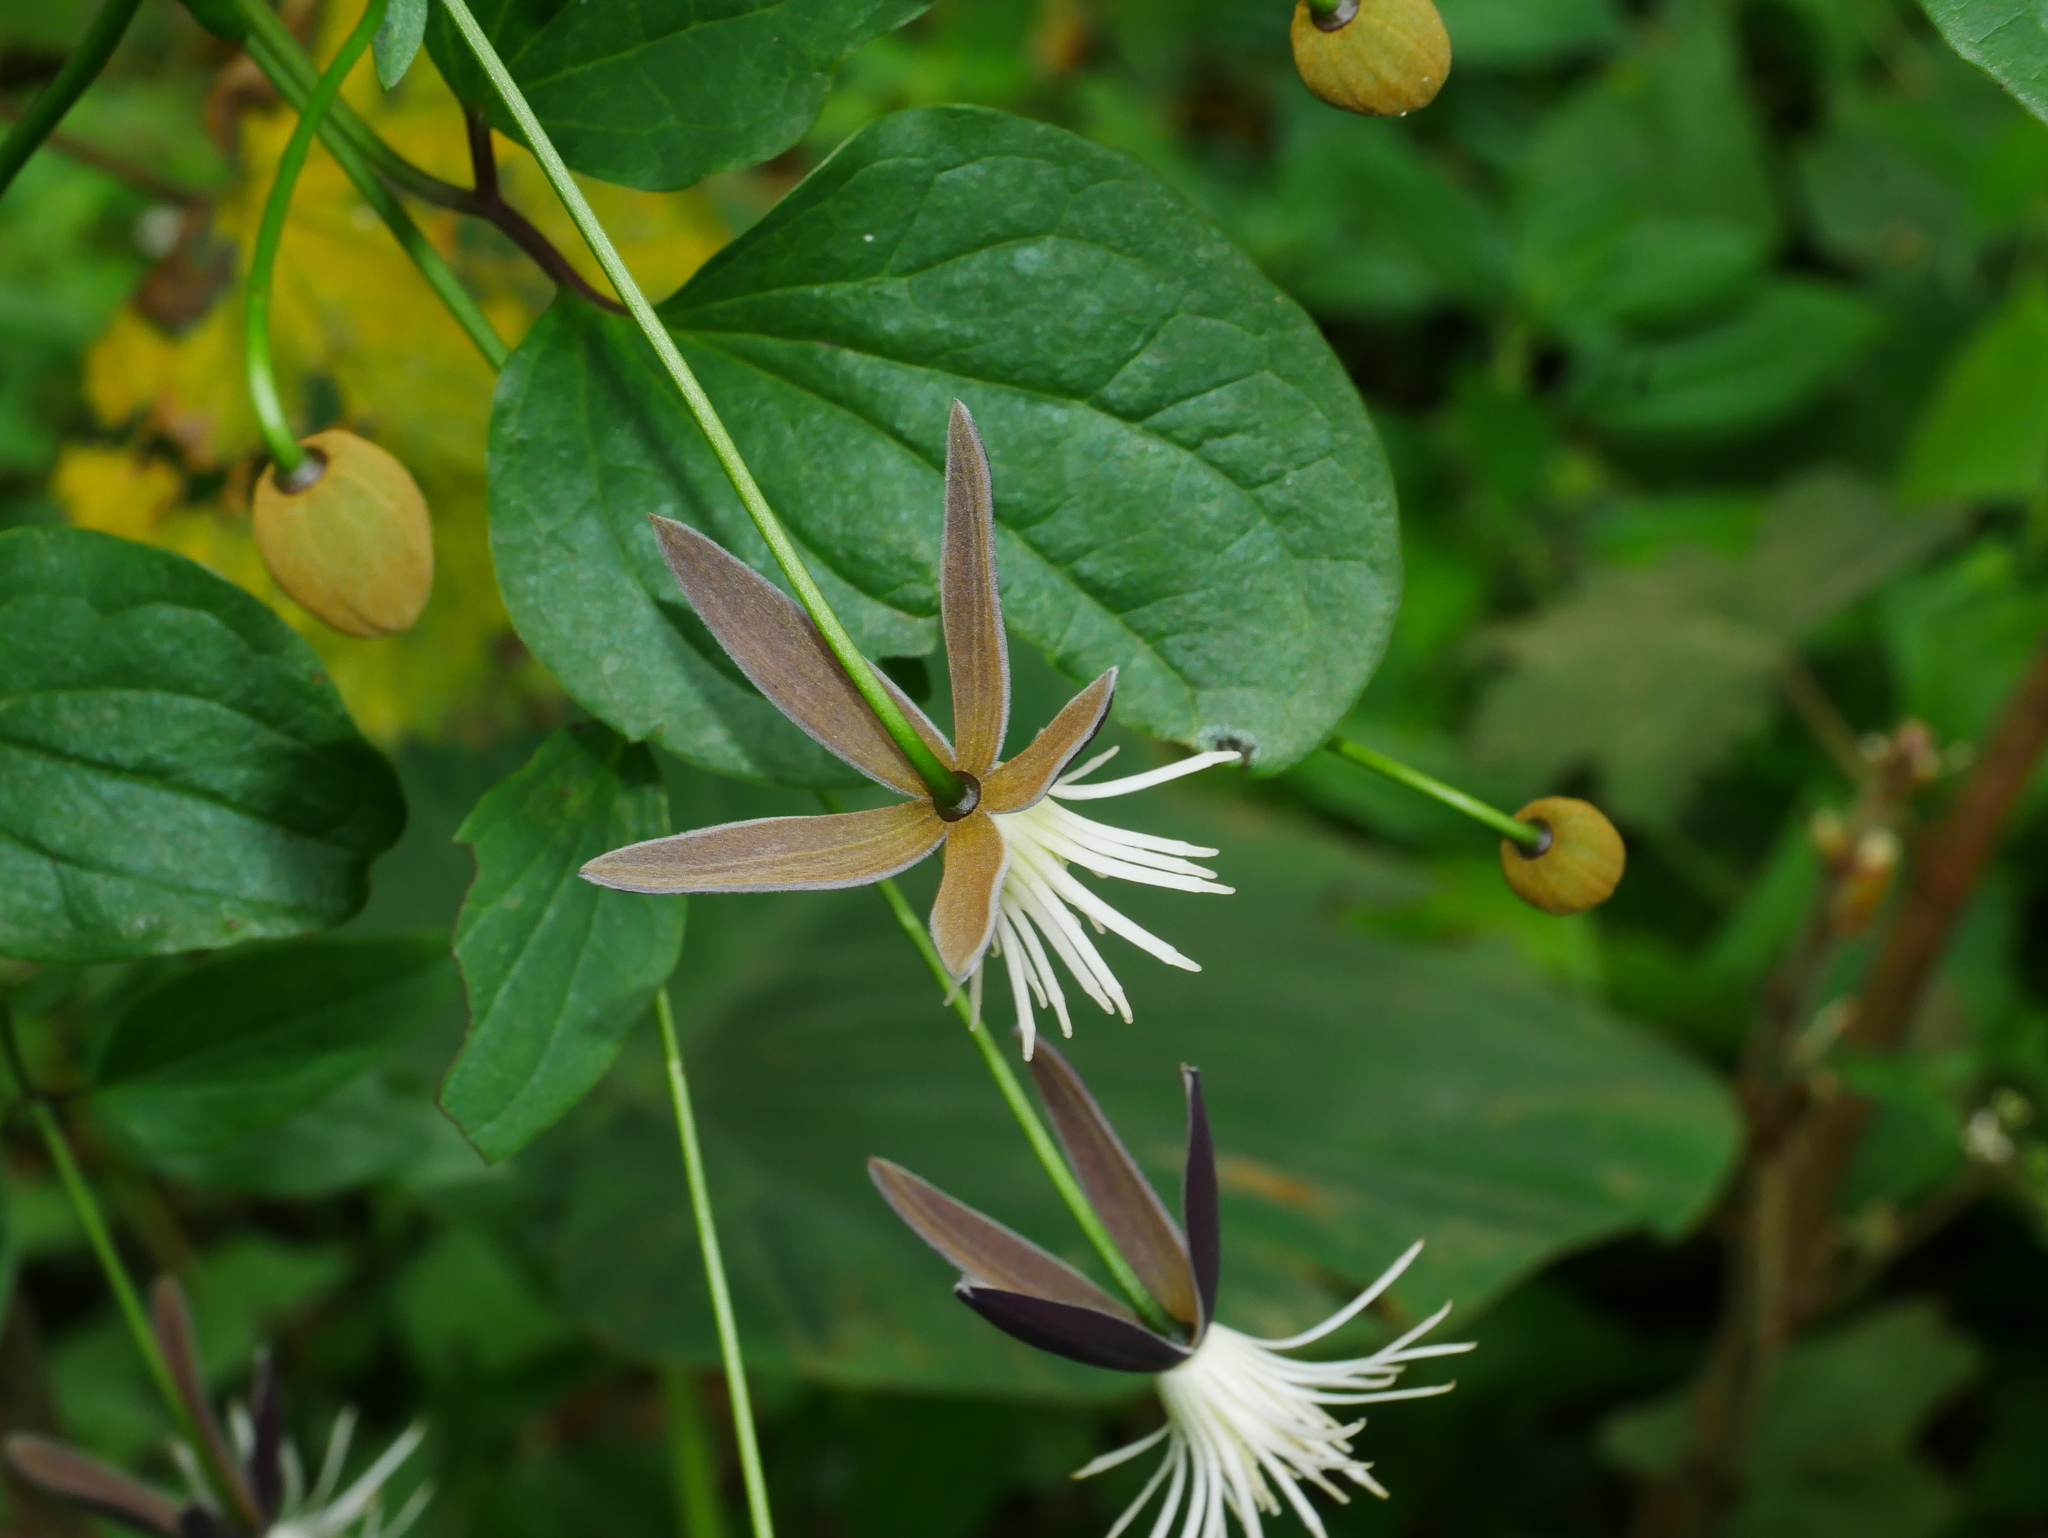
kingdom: Plantae
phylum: Tracheophyta
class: Magnoliopsida
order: Ranunculales
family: Ranunculaceae
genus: Clematis
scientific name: Clematis tashiroi
